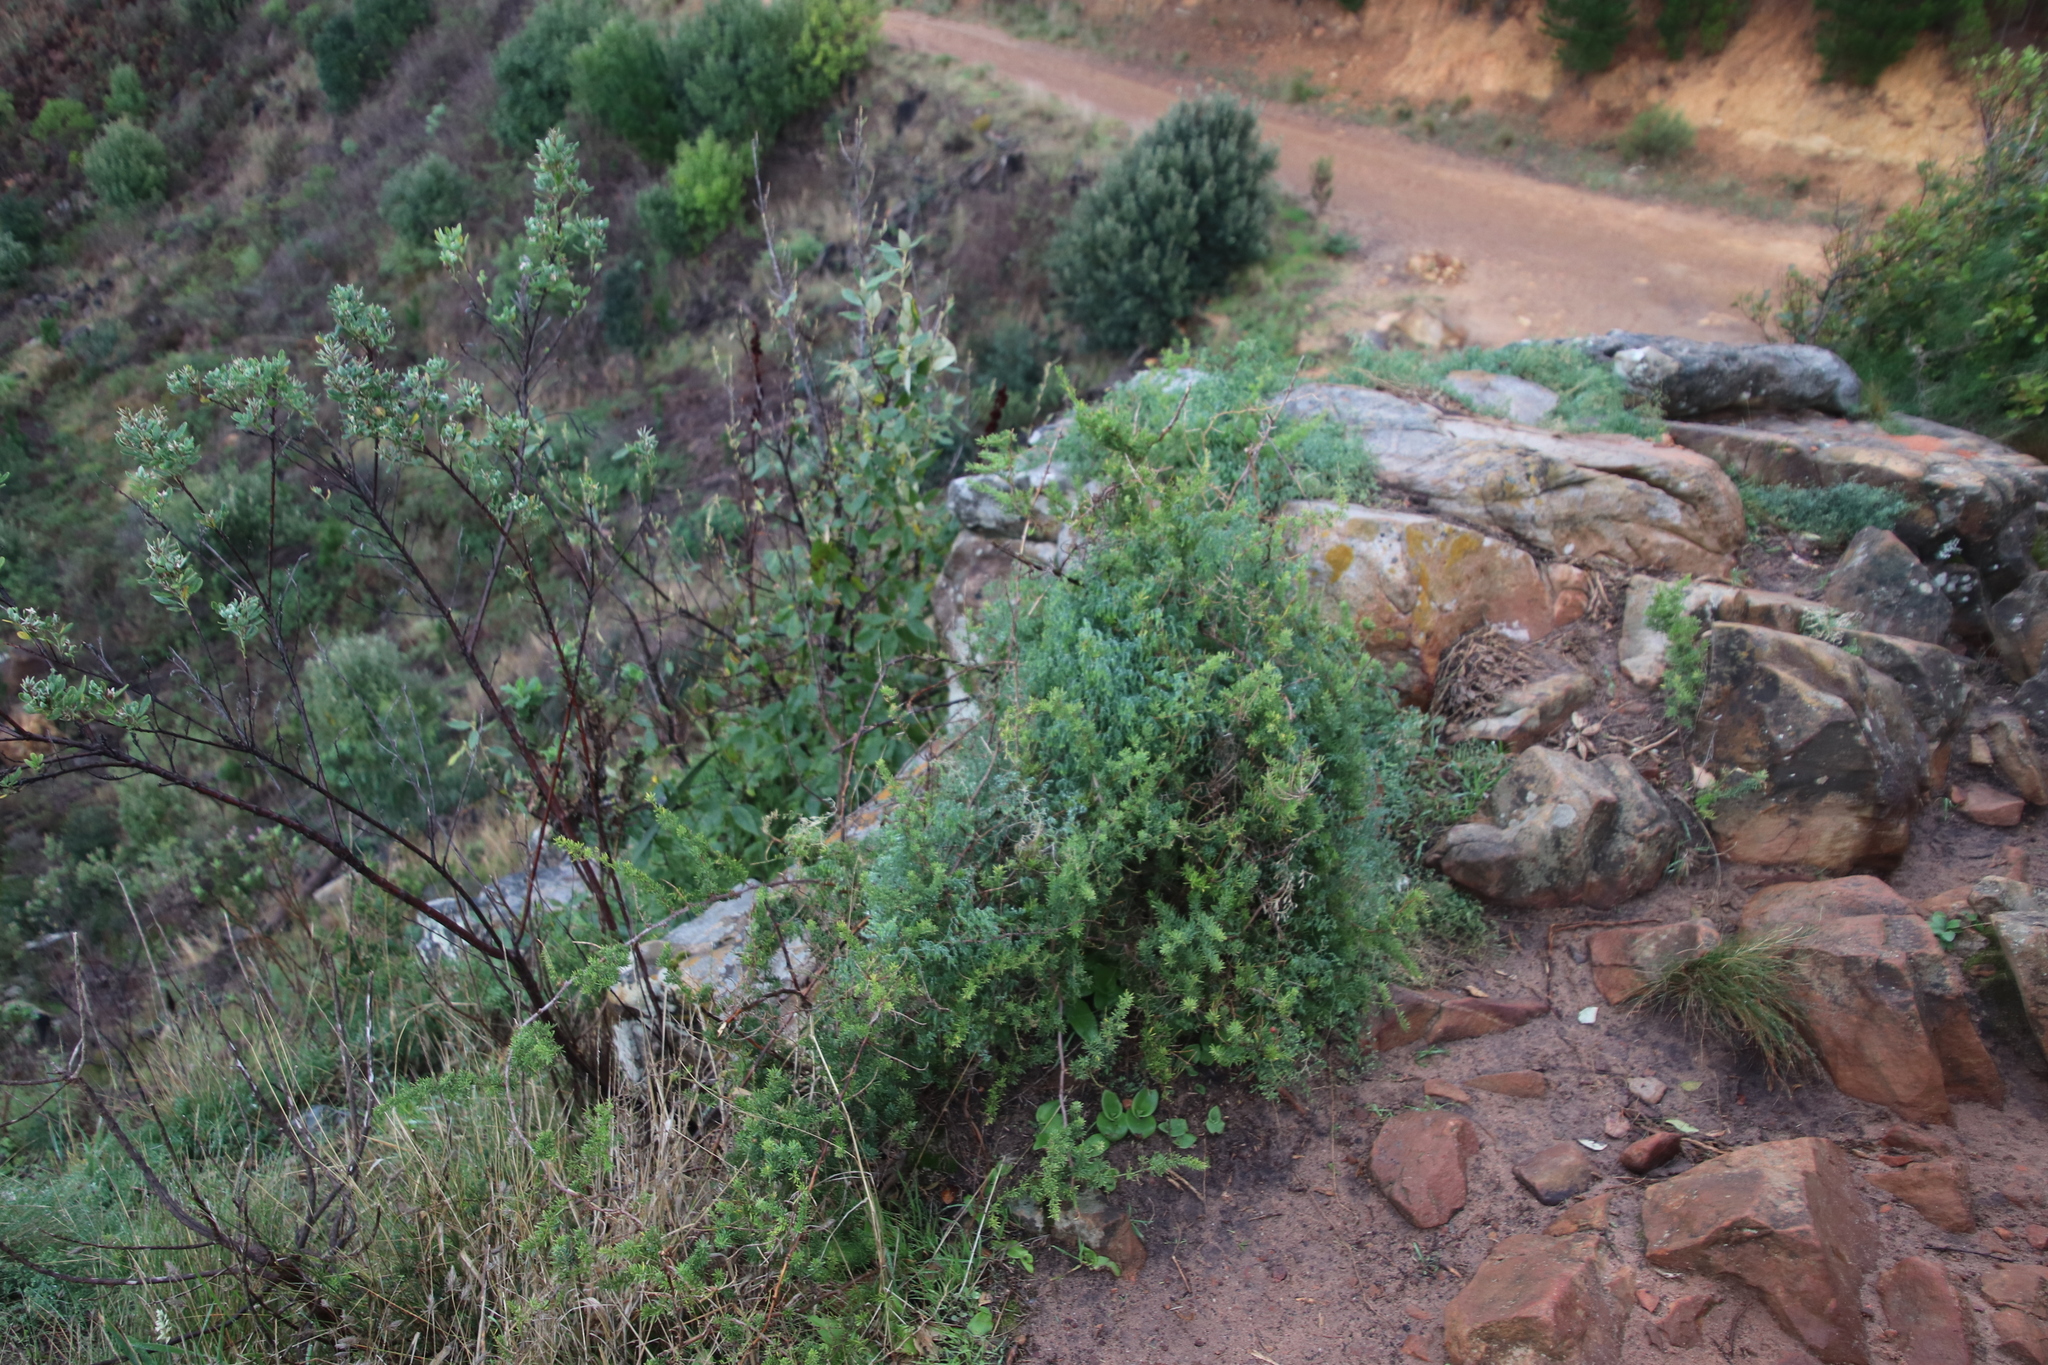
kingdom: Plantae
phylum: Tracheophyta
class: Liliopsida
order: Asparagales
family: Asparagaceae
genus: Asparagus
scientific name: Asparagus declinatus
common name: Bridal-creeper
